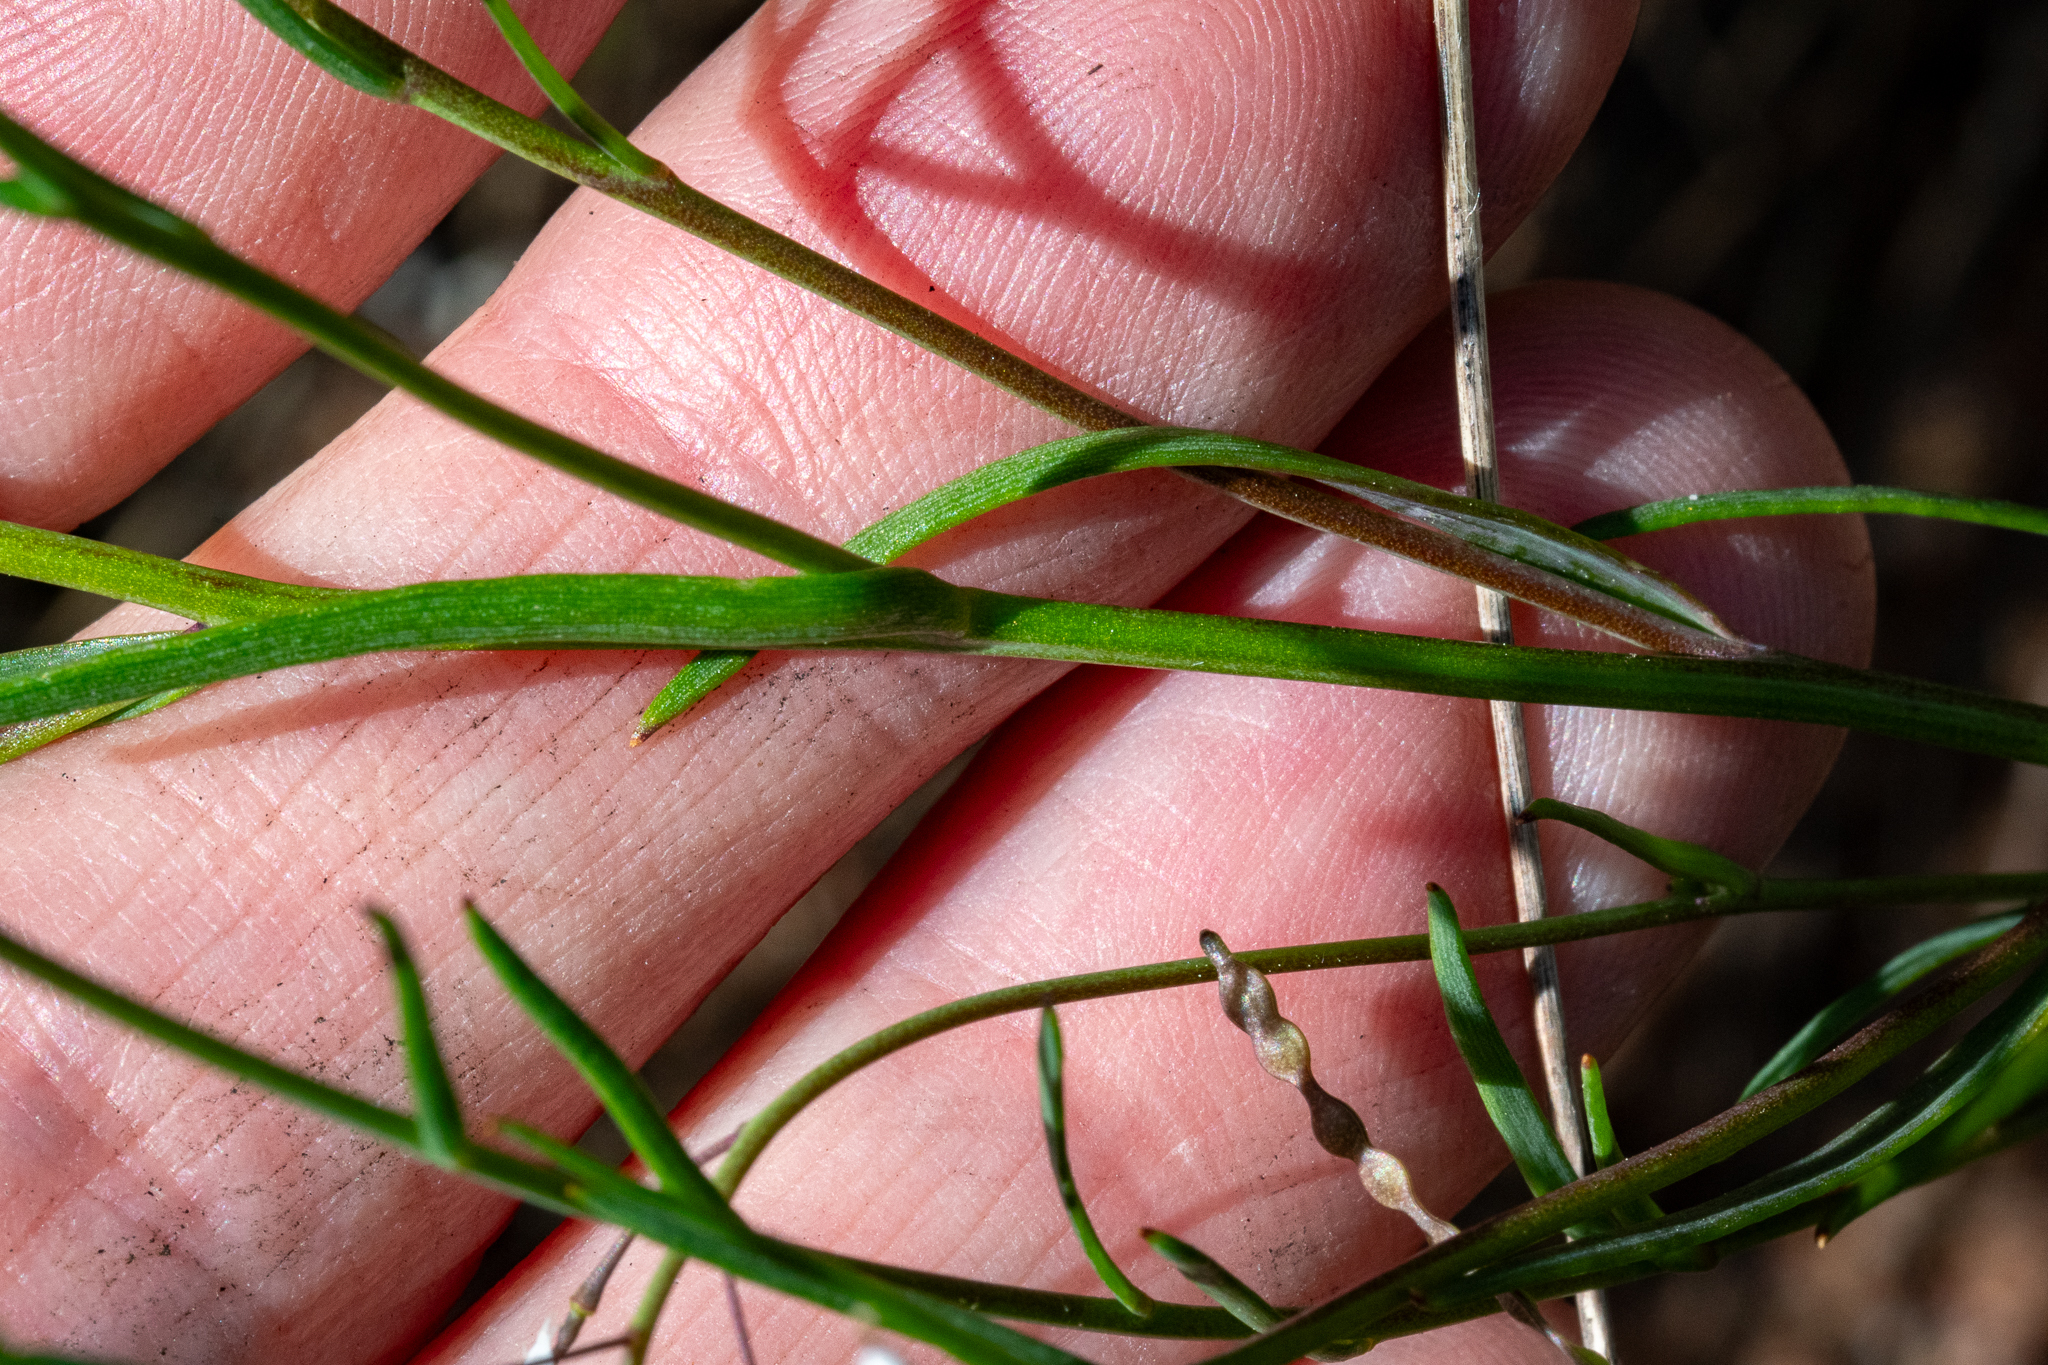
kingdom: Plantae
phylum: Tracheophyta
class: Magnoliopsida
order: Brassicales
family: Brassicaceae
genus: Heliophila
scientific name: Heliophila pusilla
